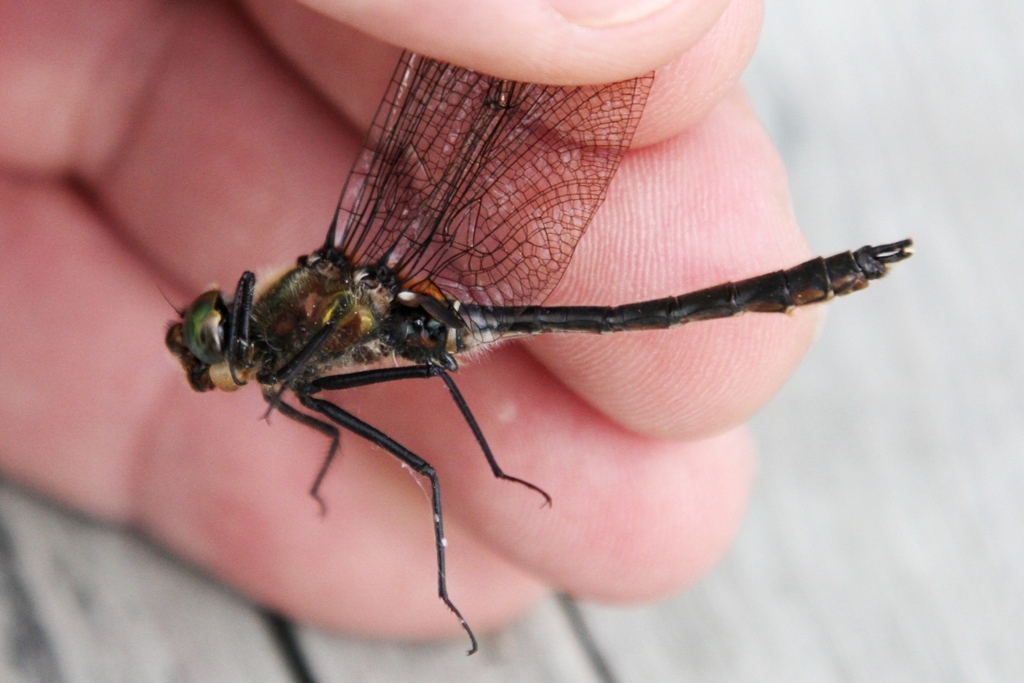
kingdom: Animalia
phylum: Arthropoda
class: Insecta
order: Odonata
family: Corduliidae
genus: Cordulia
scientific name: Cordulia shurtleffii
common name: American emerald
